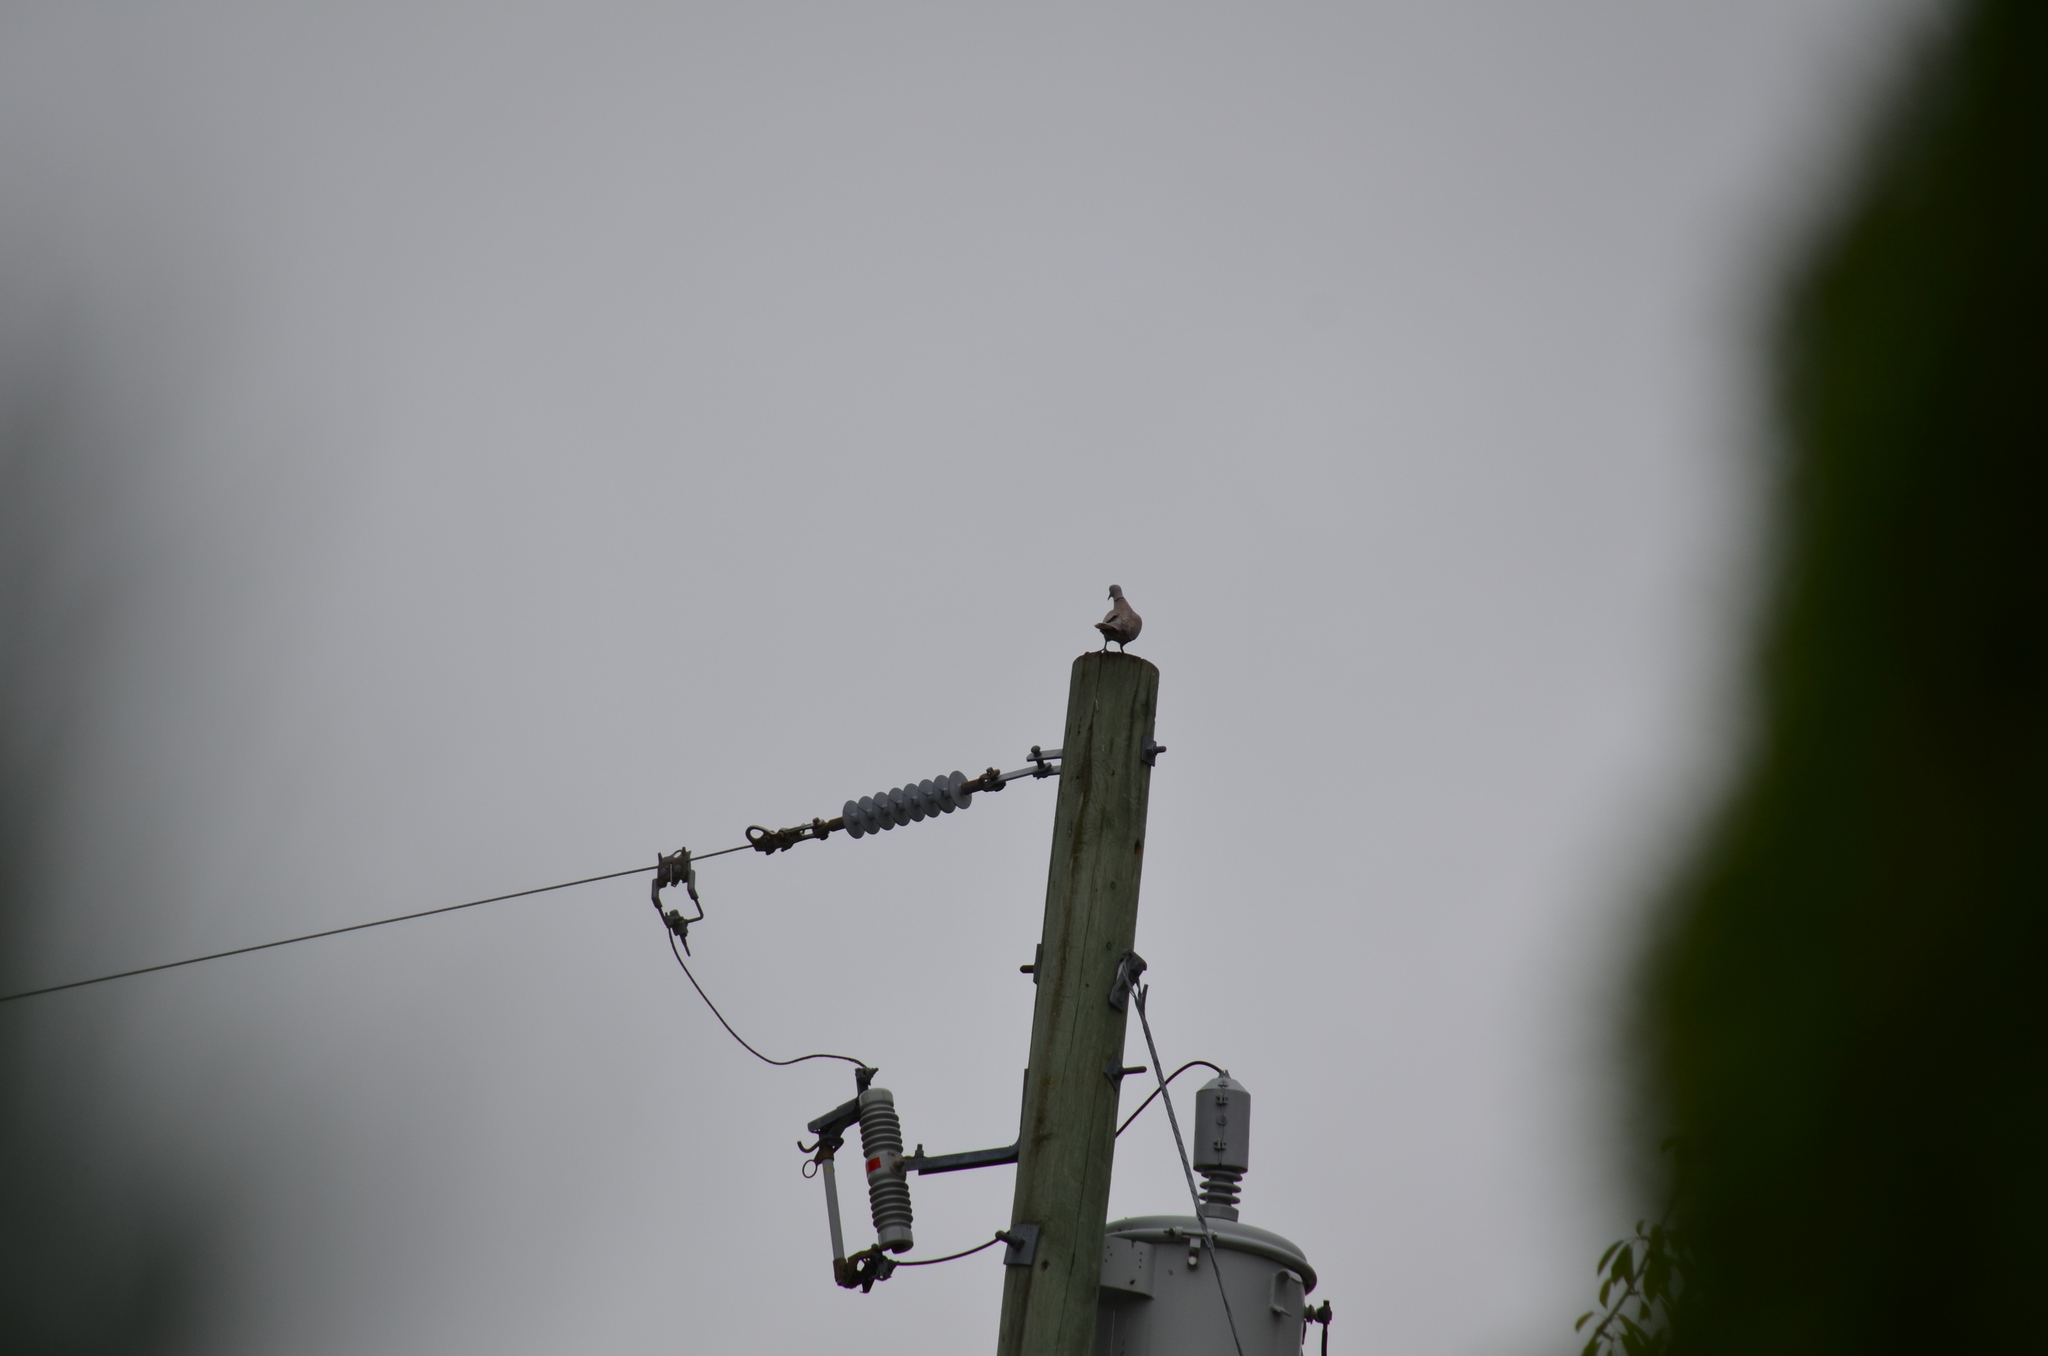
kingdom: Animalia
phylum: Chordata
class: Aves
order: Columbiformes
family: Columbidae
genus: Streptopelia
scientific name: Streptopelia decaocto
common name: Eurasian collared dove
